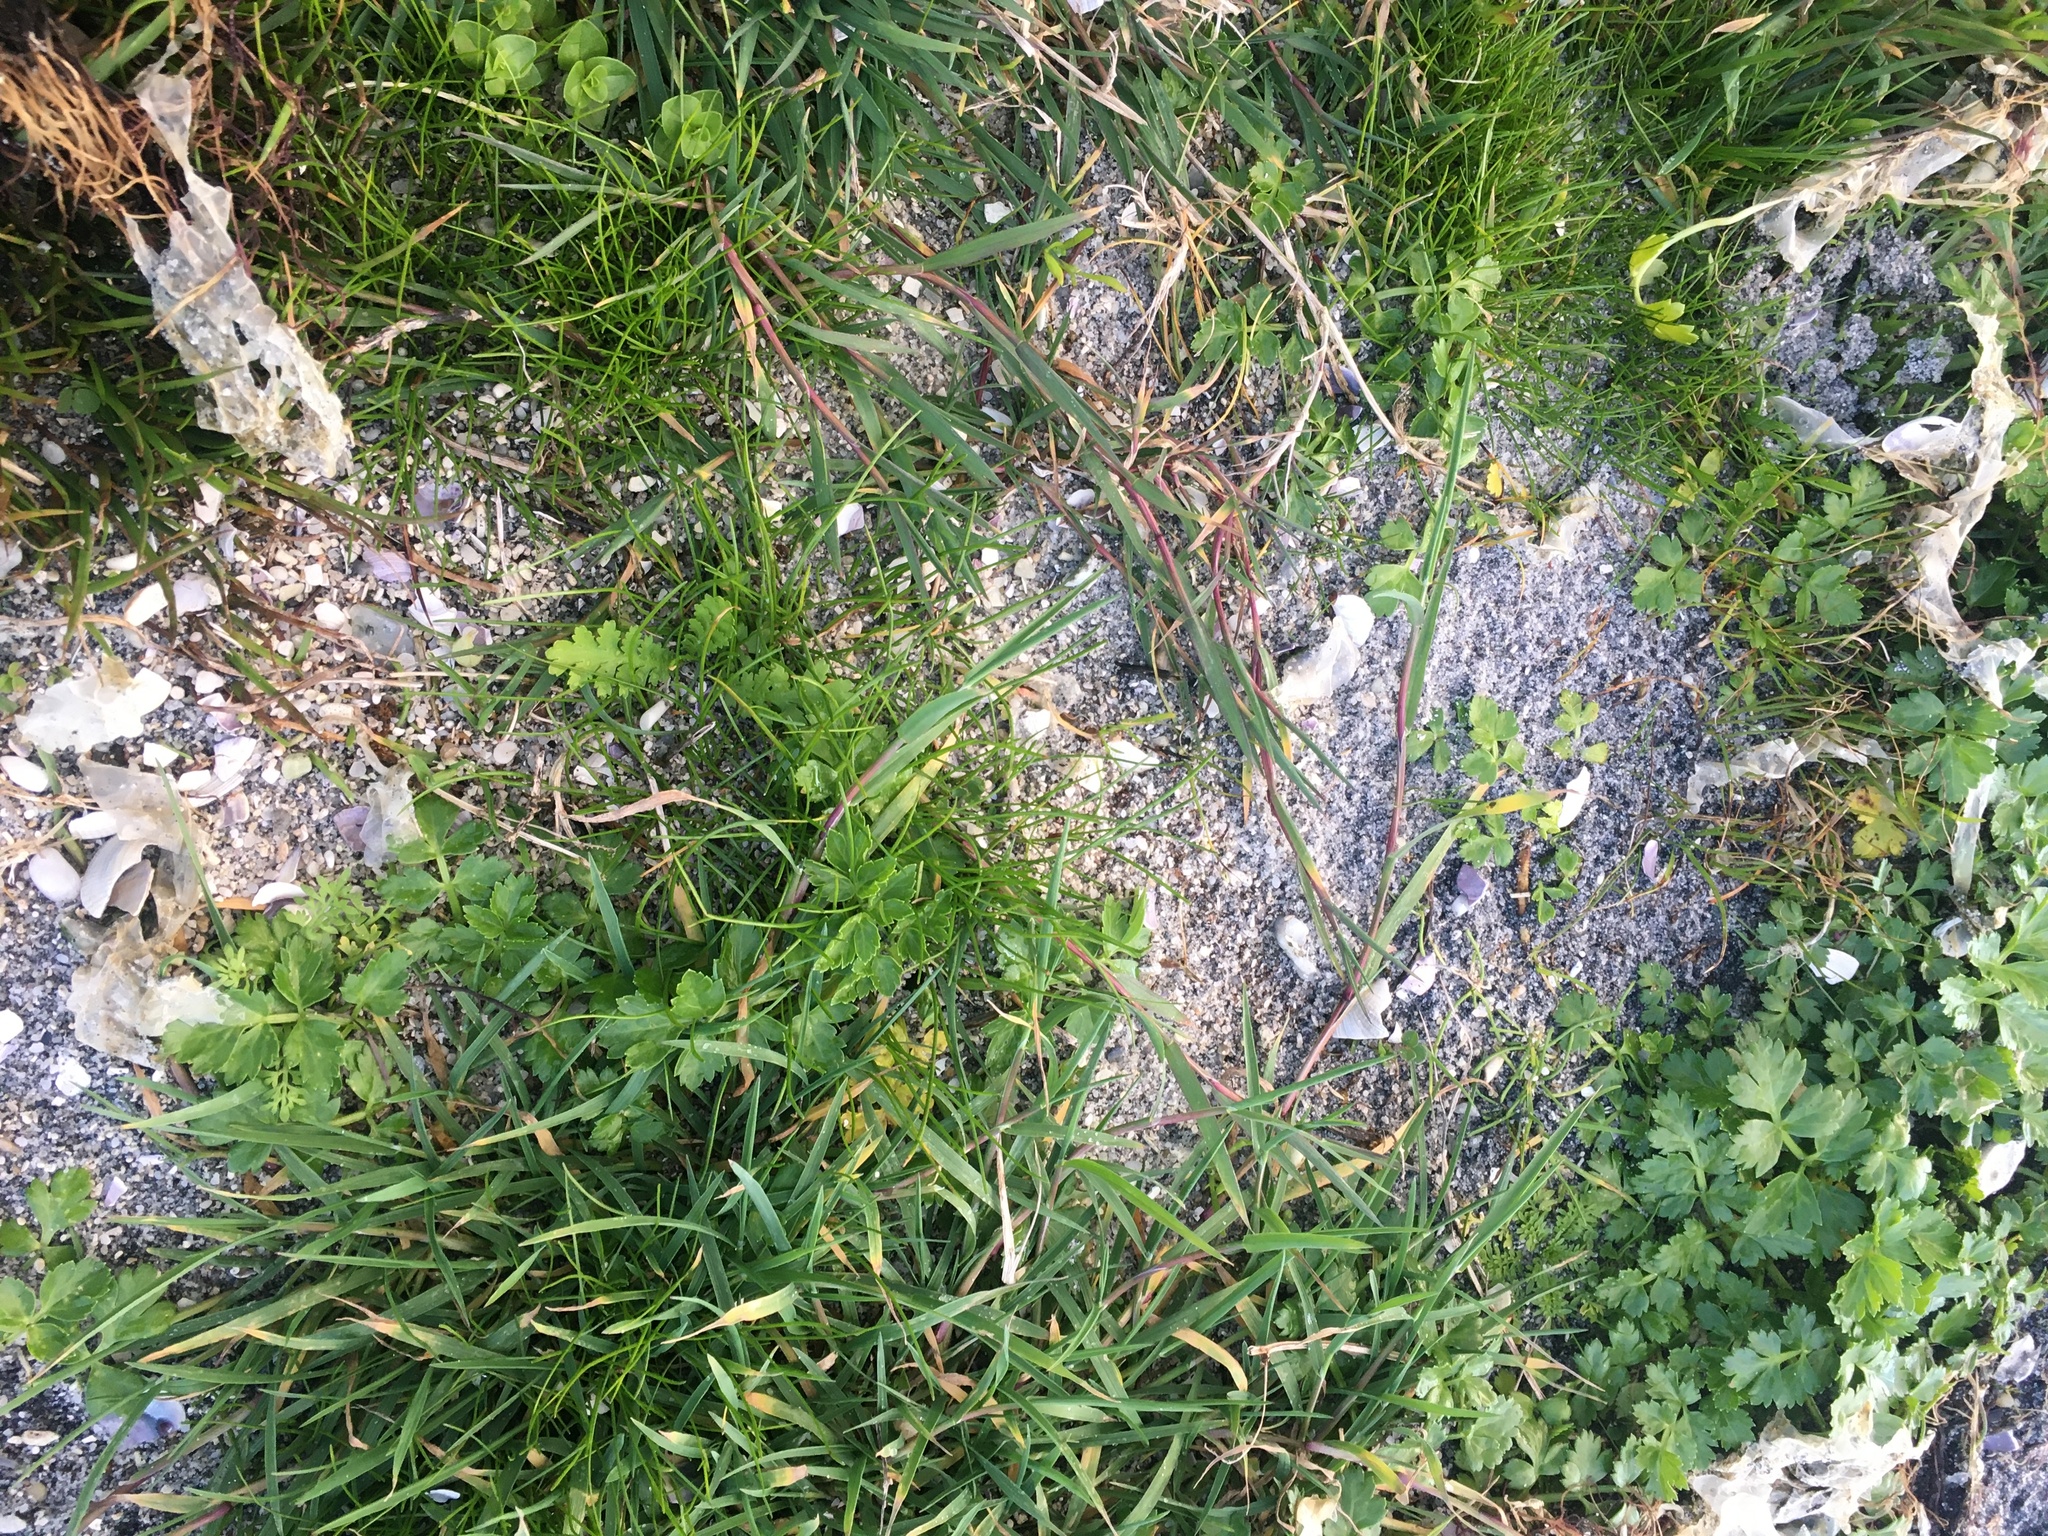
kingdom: Plantae
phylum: Tracheophyta
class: Magnoliopsida
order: Asterales
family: Asteraceae
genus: Leptinella
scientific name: Leptinella potentillina
